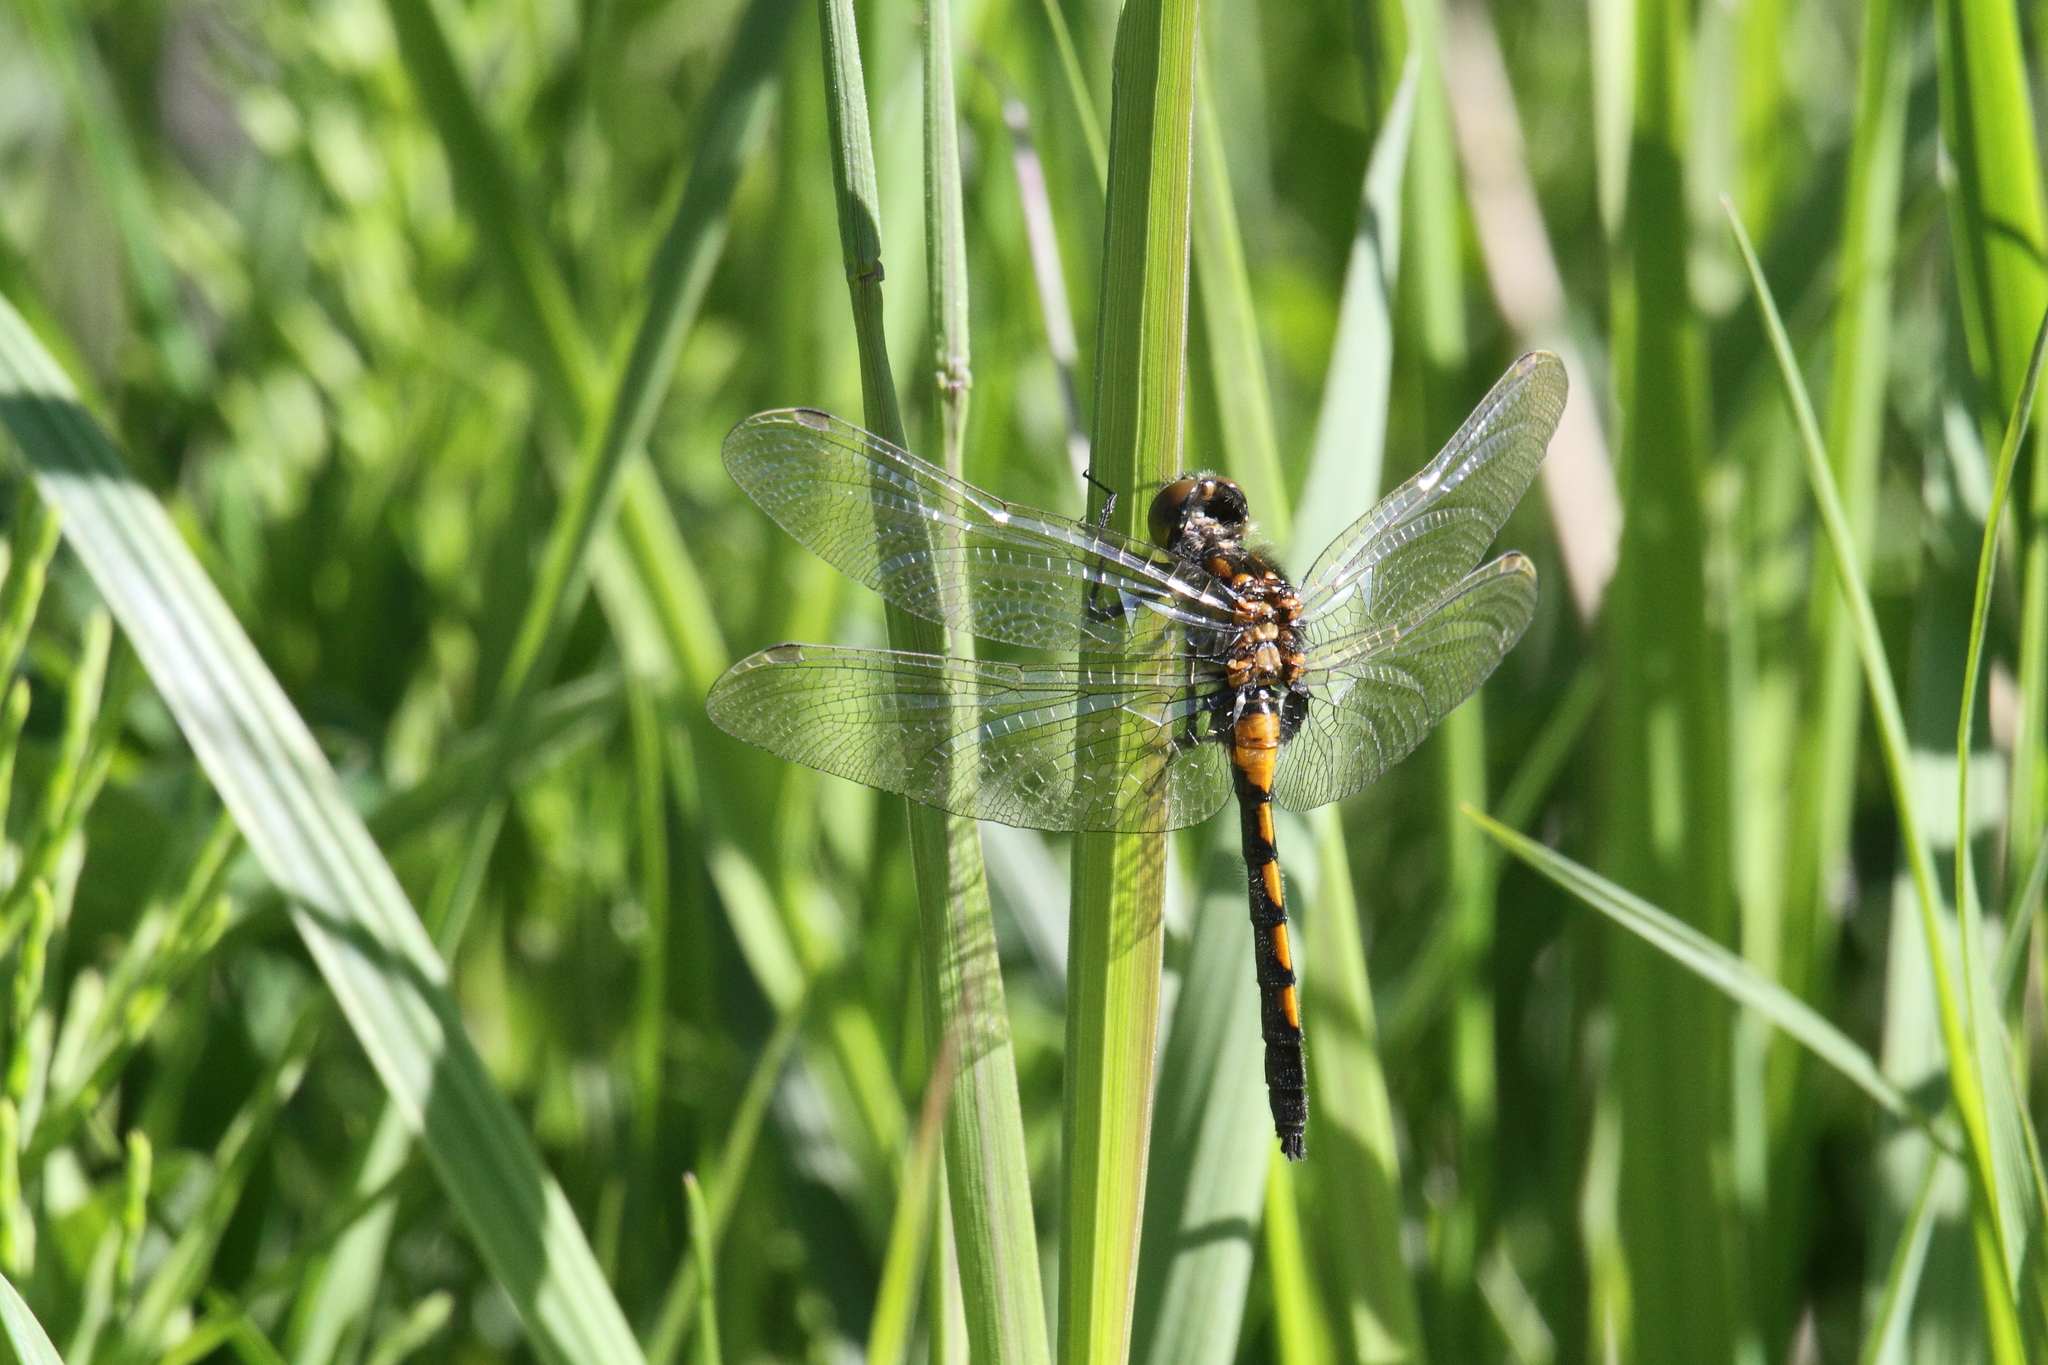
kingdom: Animalia
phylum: Arthropoda
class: Insecta
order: Odonata
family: Libellulidae
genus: Leucorrhinia
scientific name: Leucorrhinia rubicunda
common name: Ruby whiteface
